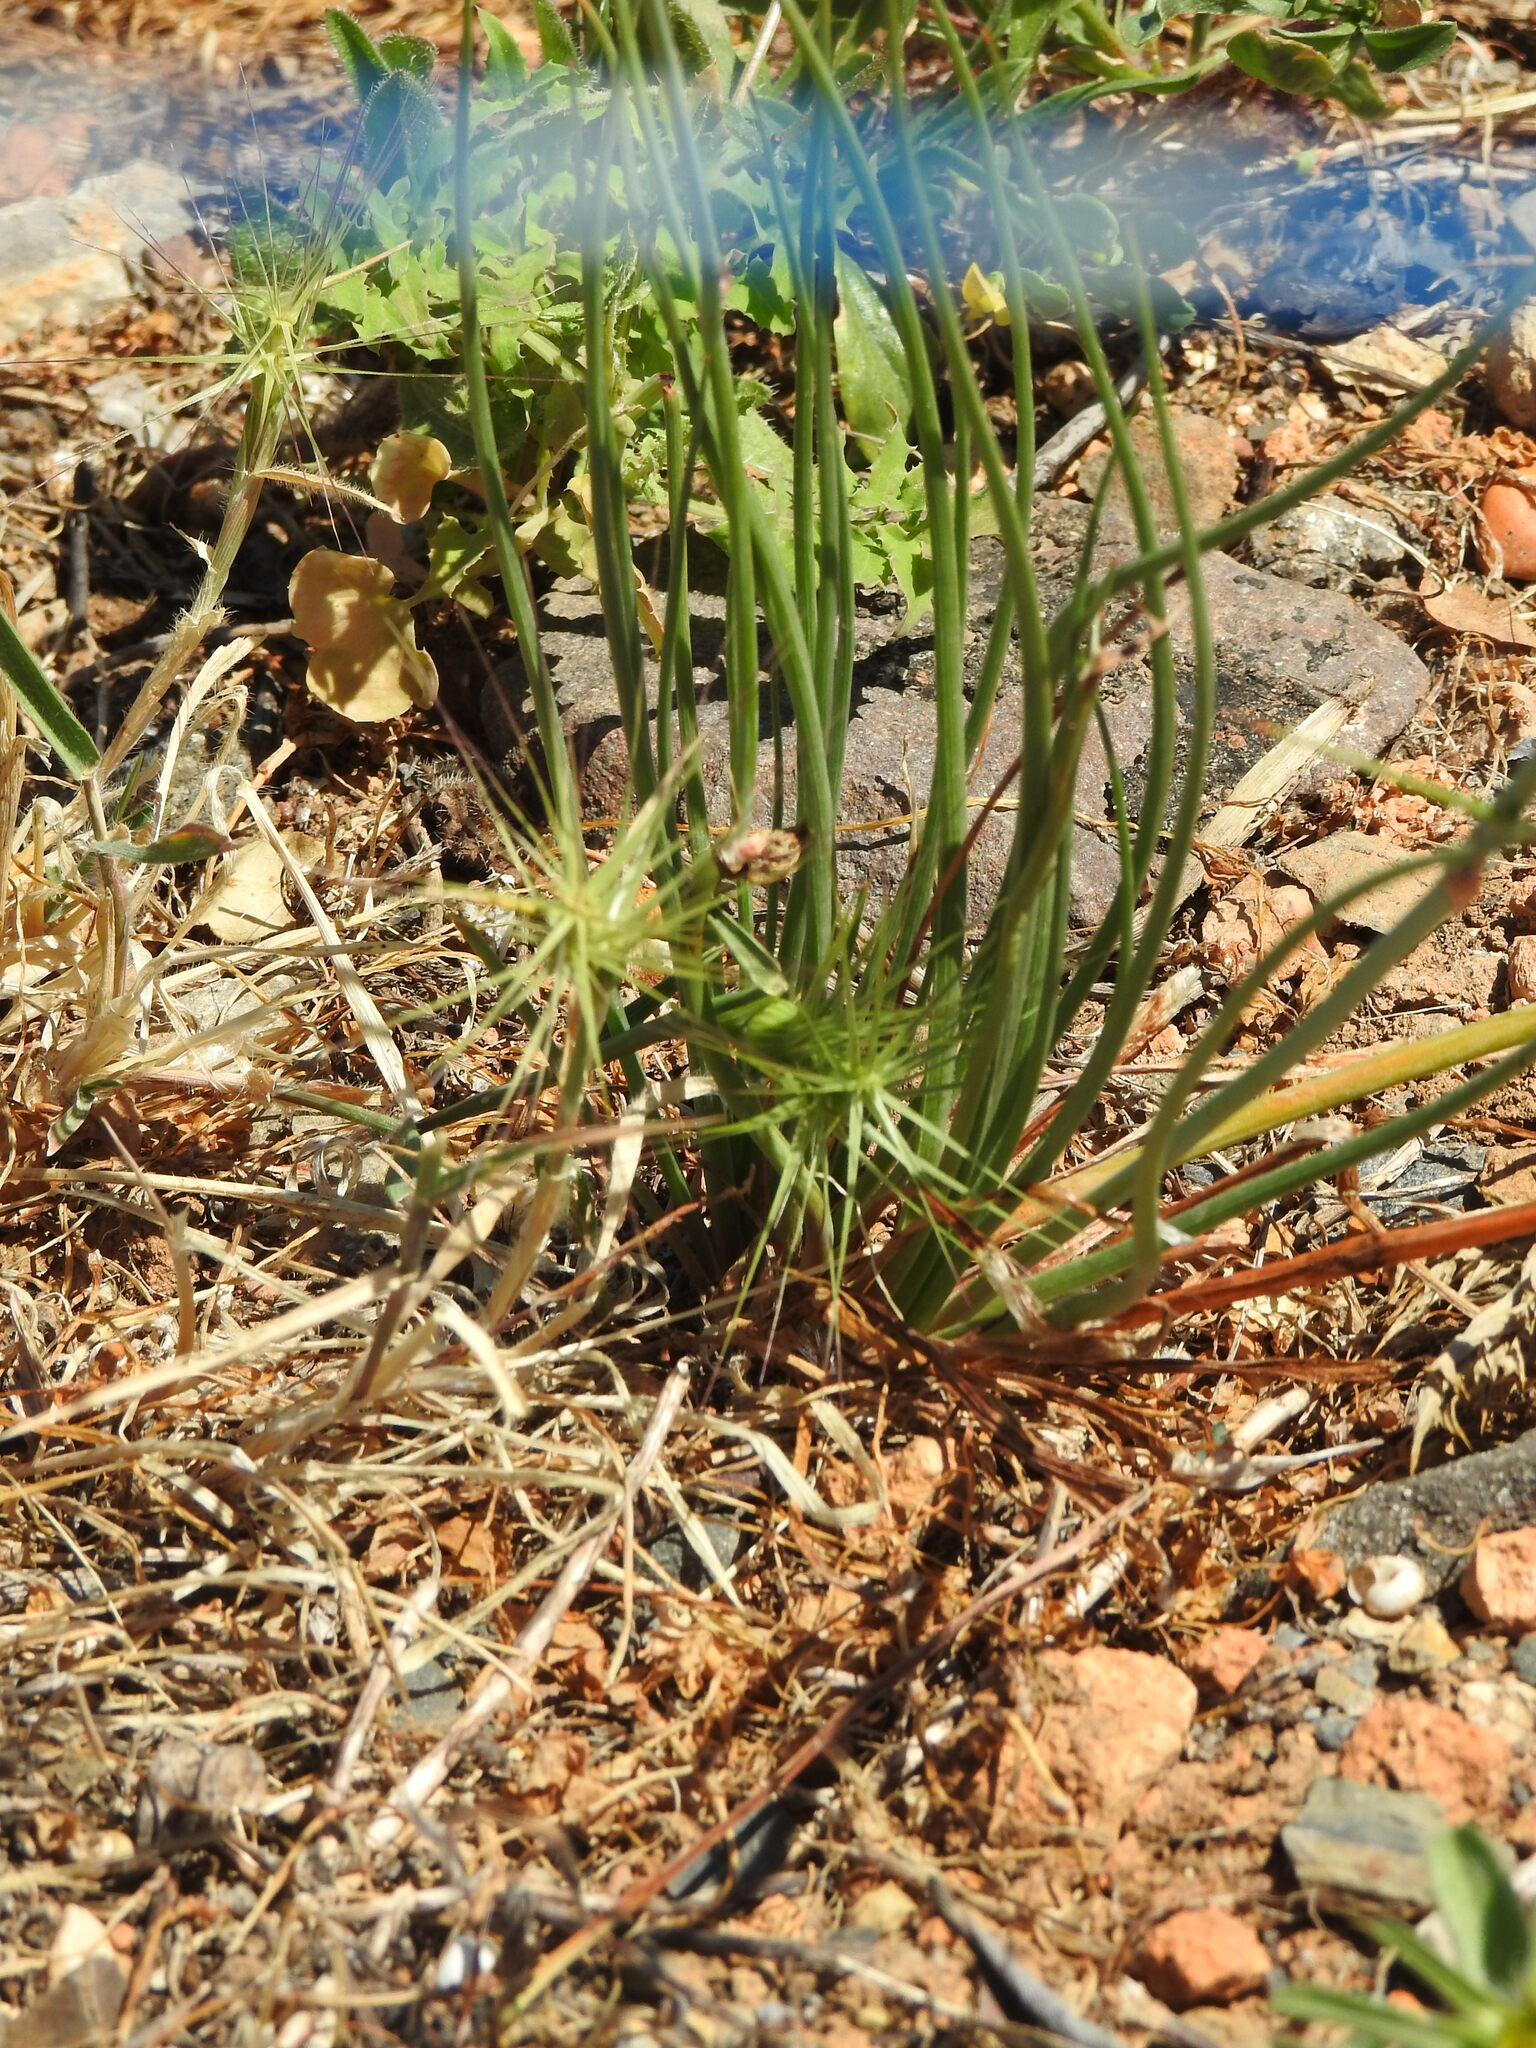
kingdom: Plantae
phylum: Tracheophyta
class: Liliopsida
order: Asparagales
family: Asphodelaceae
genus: Asphodelus
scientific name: Asphodelus fistulosus
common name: Onionweed
